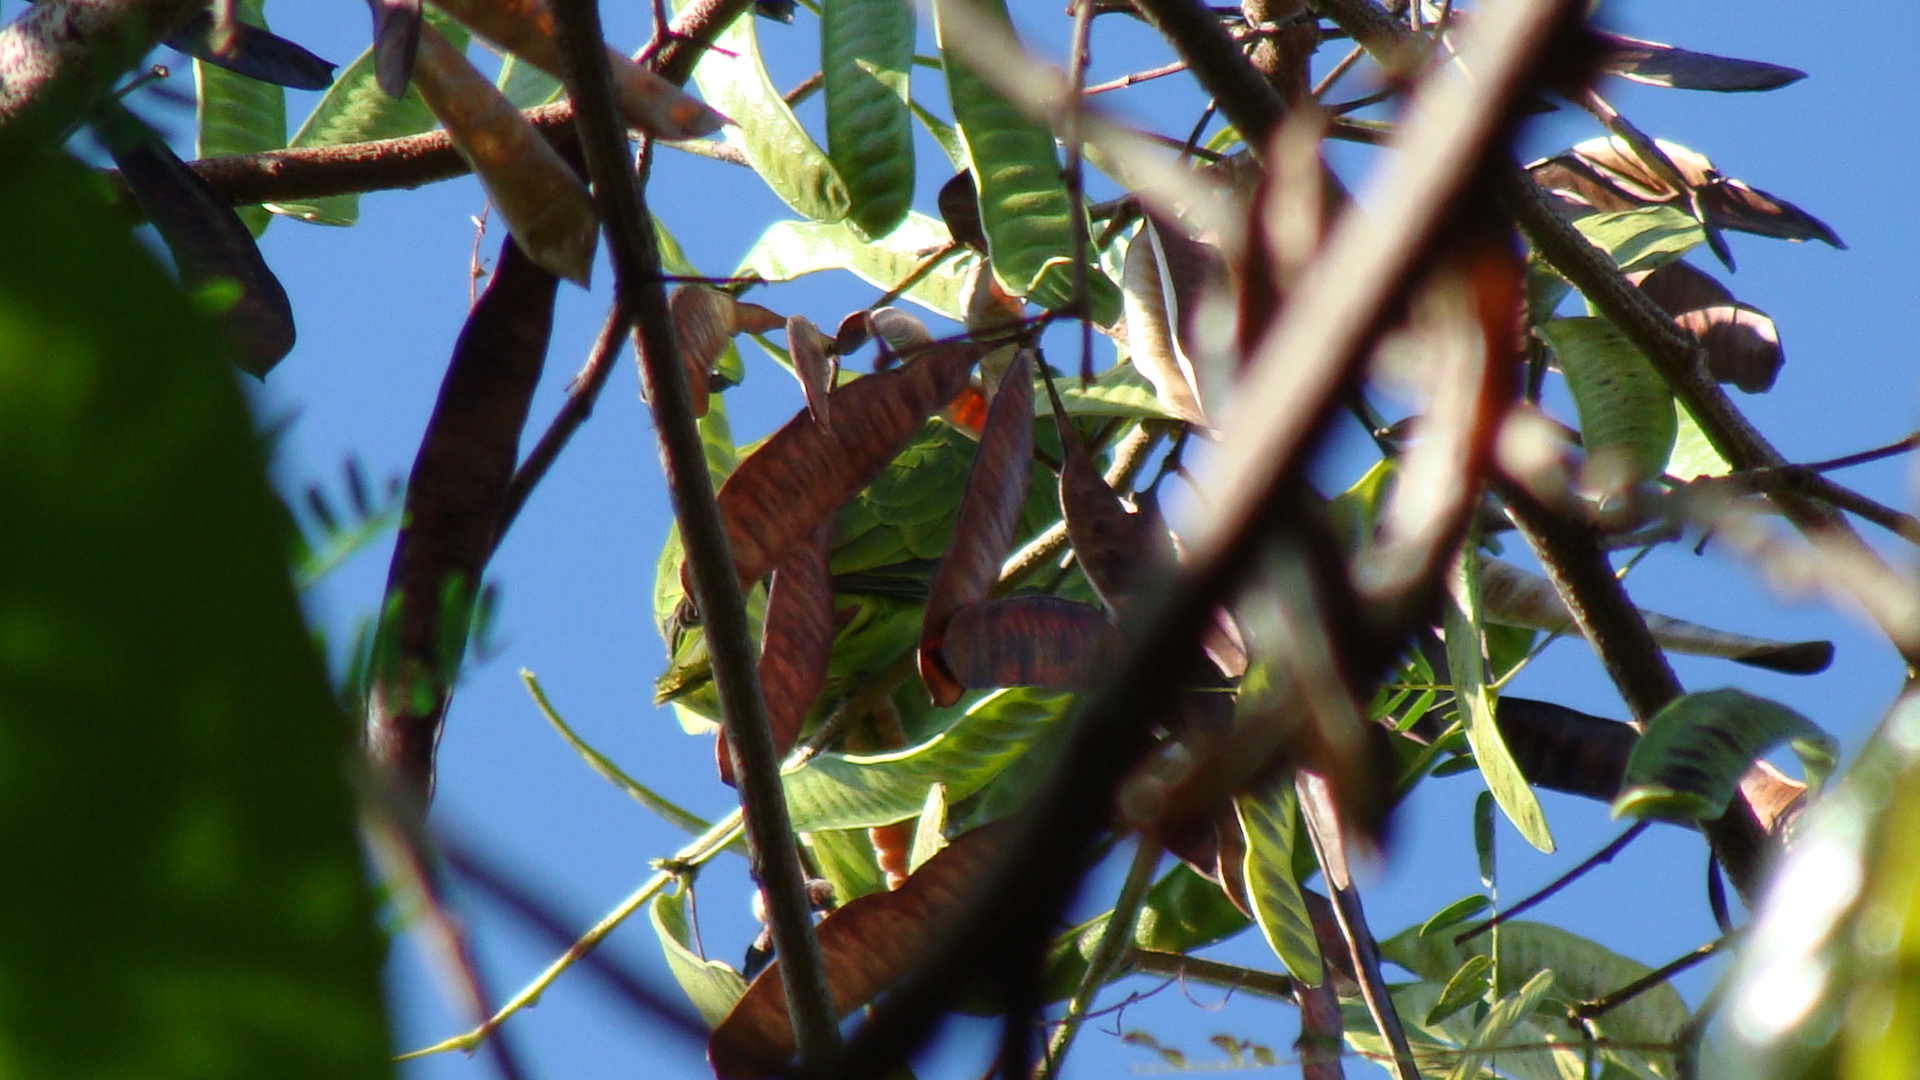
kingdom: Animalia
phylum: Chordata
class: Aves
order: Psittaciformes
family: Psittacidae
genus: Amazona
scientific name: Amazona albifrons
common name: White-fronted amazon
